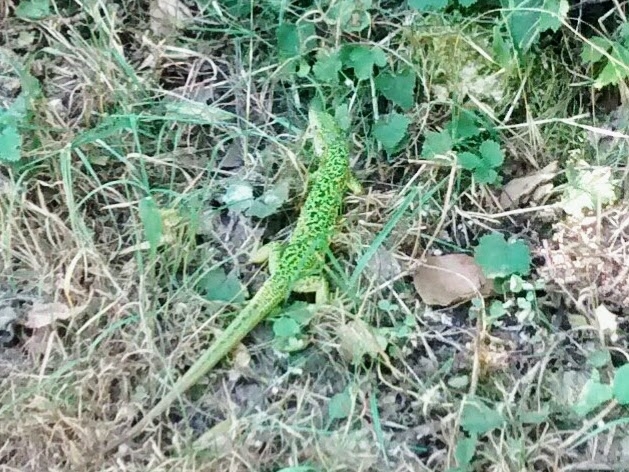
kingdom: Animalia
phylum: Chordata
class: Squamata
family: Lacertidae
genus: Lacerta
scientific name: Lacerta bilineata
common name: Western green lizard
